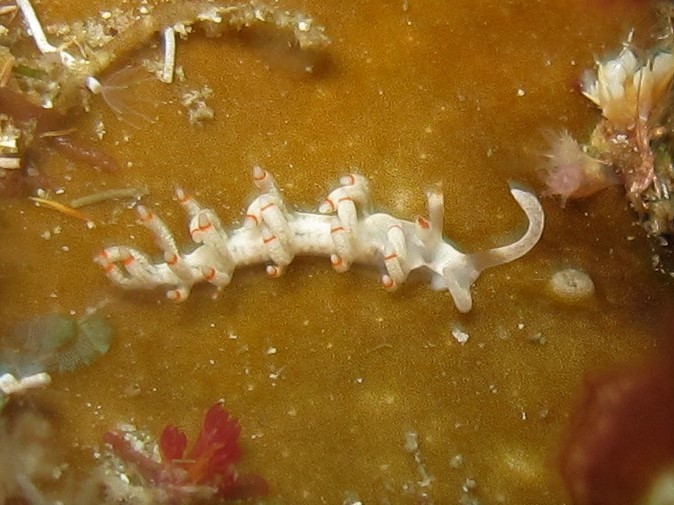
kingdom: Animalia
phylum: Mollusca
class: Gastropoda
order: Nudibranchia
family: Samlidae
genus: Samla
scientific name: Samla bicolor
